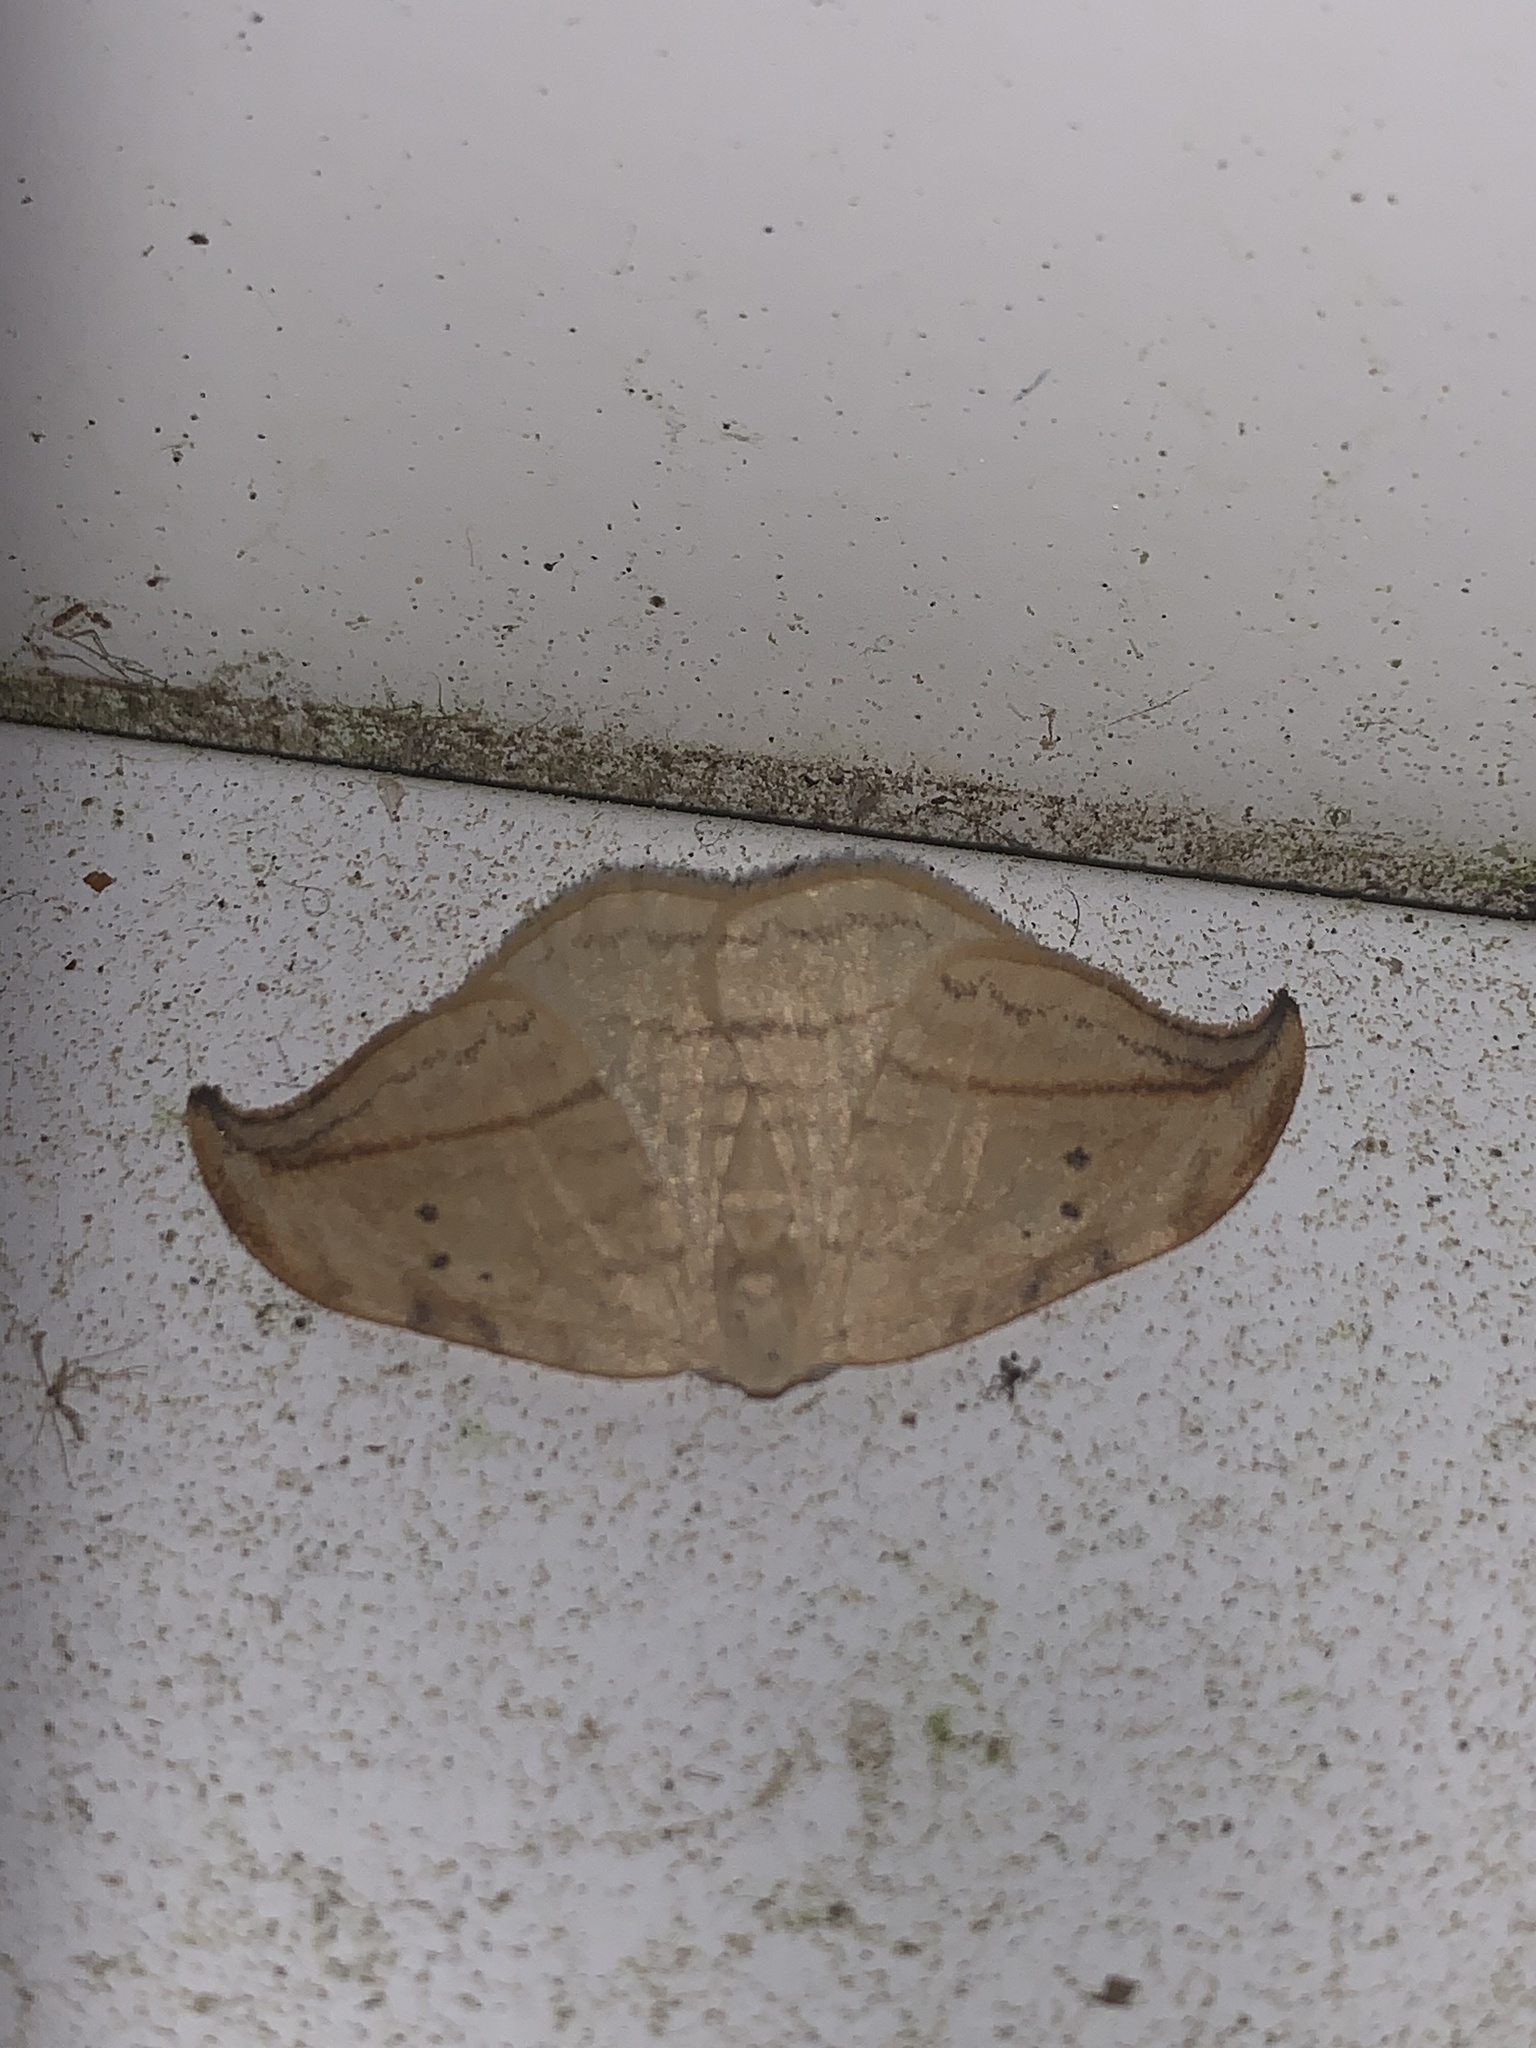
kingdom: Animalia
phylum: Arthropoda
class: Insecta
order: Lepidoptera
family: Drepanidae
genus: Drepana
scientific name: Drepana arcuata
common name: Arched hooktip moth
